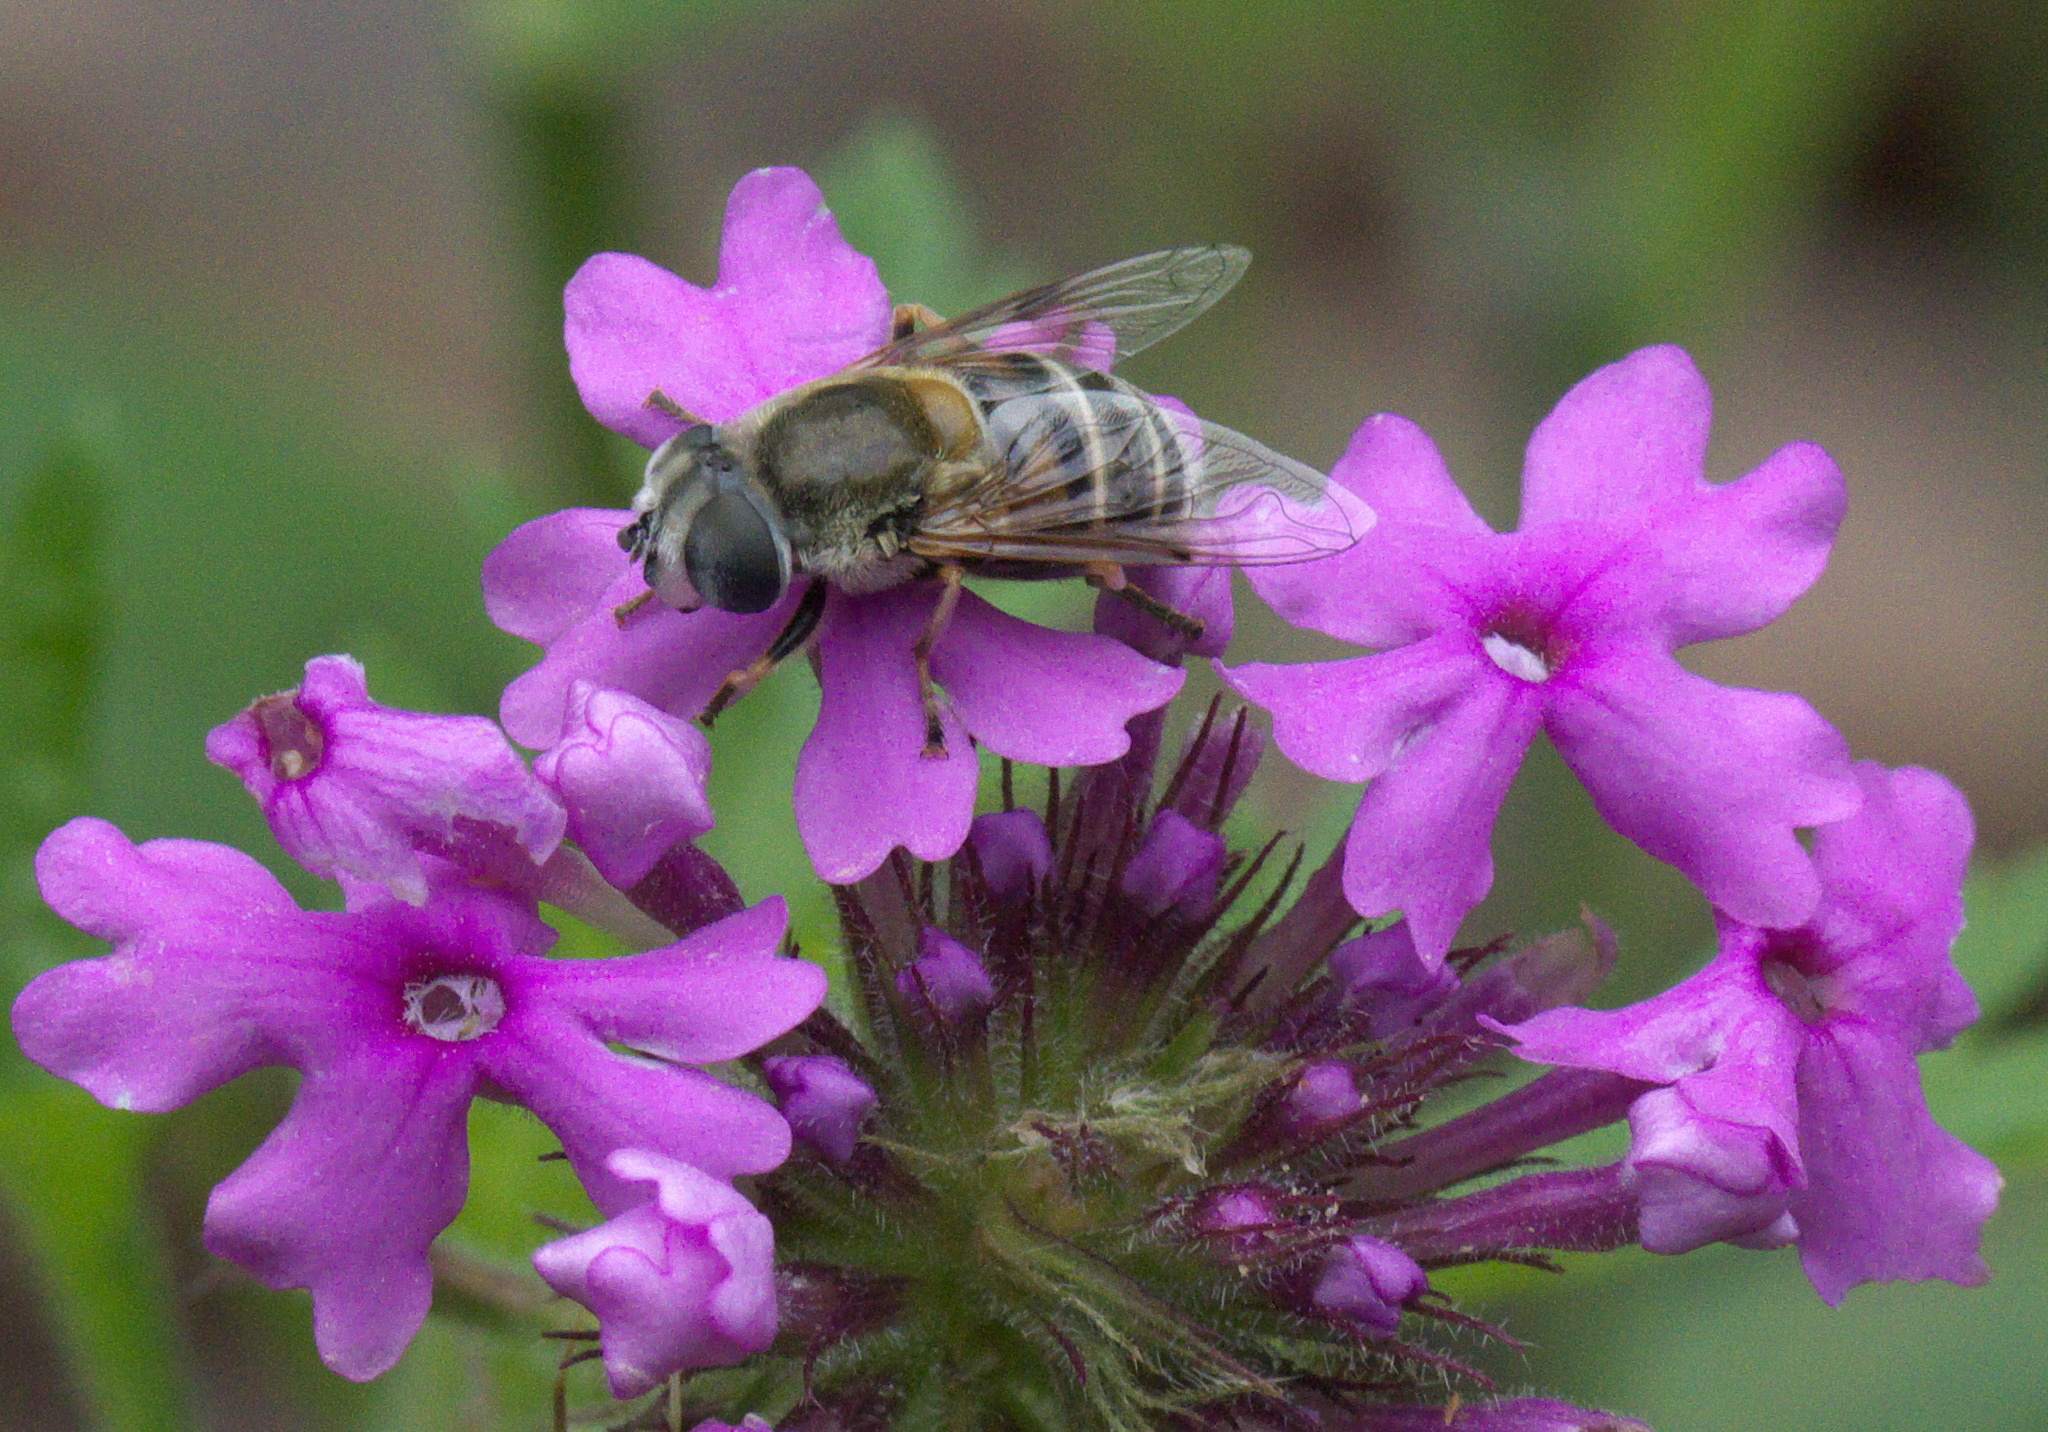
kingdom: Animalia
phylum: Arthropoda
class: Insecta
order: Diptera
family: Syrphidae
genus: Eristalis
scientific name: Eristalis stipator
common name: Yellow-shouldered drone fly
